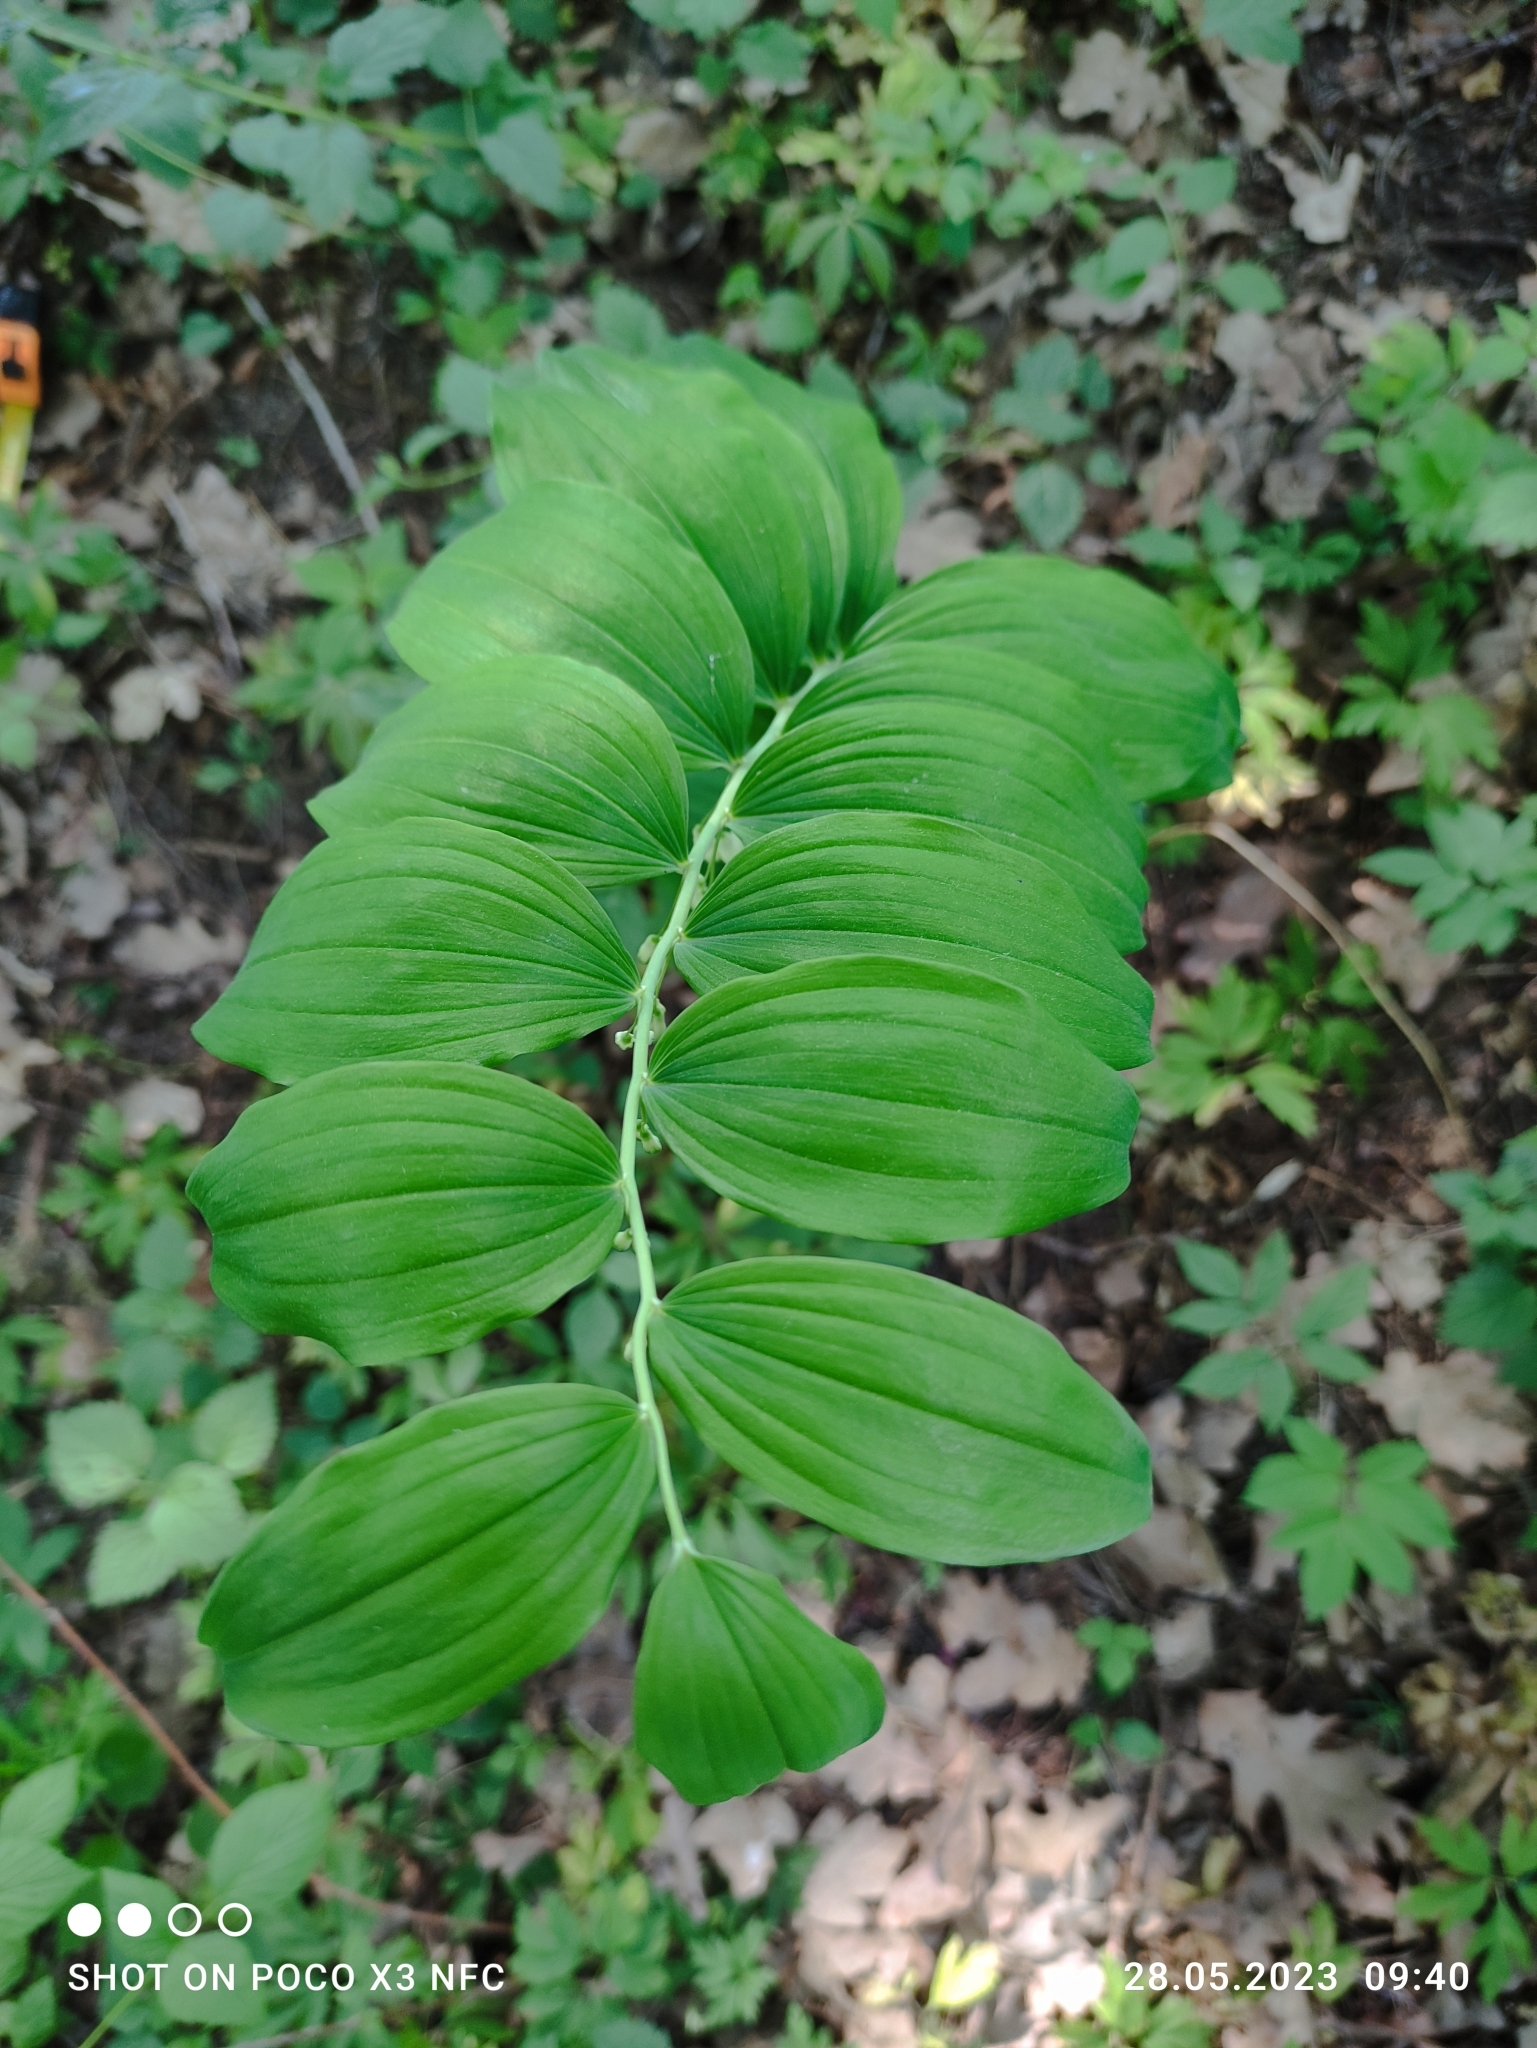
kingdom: Plantae
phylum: Tracheophyta
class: Liliopsida
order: Asparagales
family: Asparagaceae
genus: Polygonatum
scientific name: Polygonatum multiflorum
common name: Solomon's-seal
